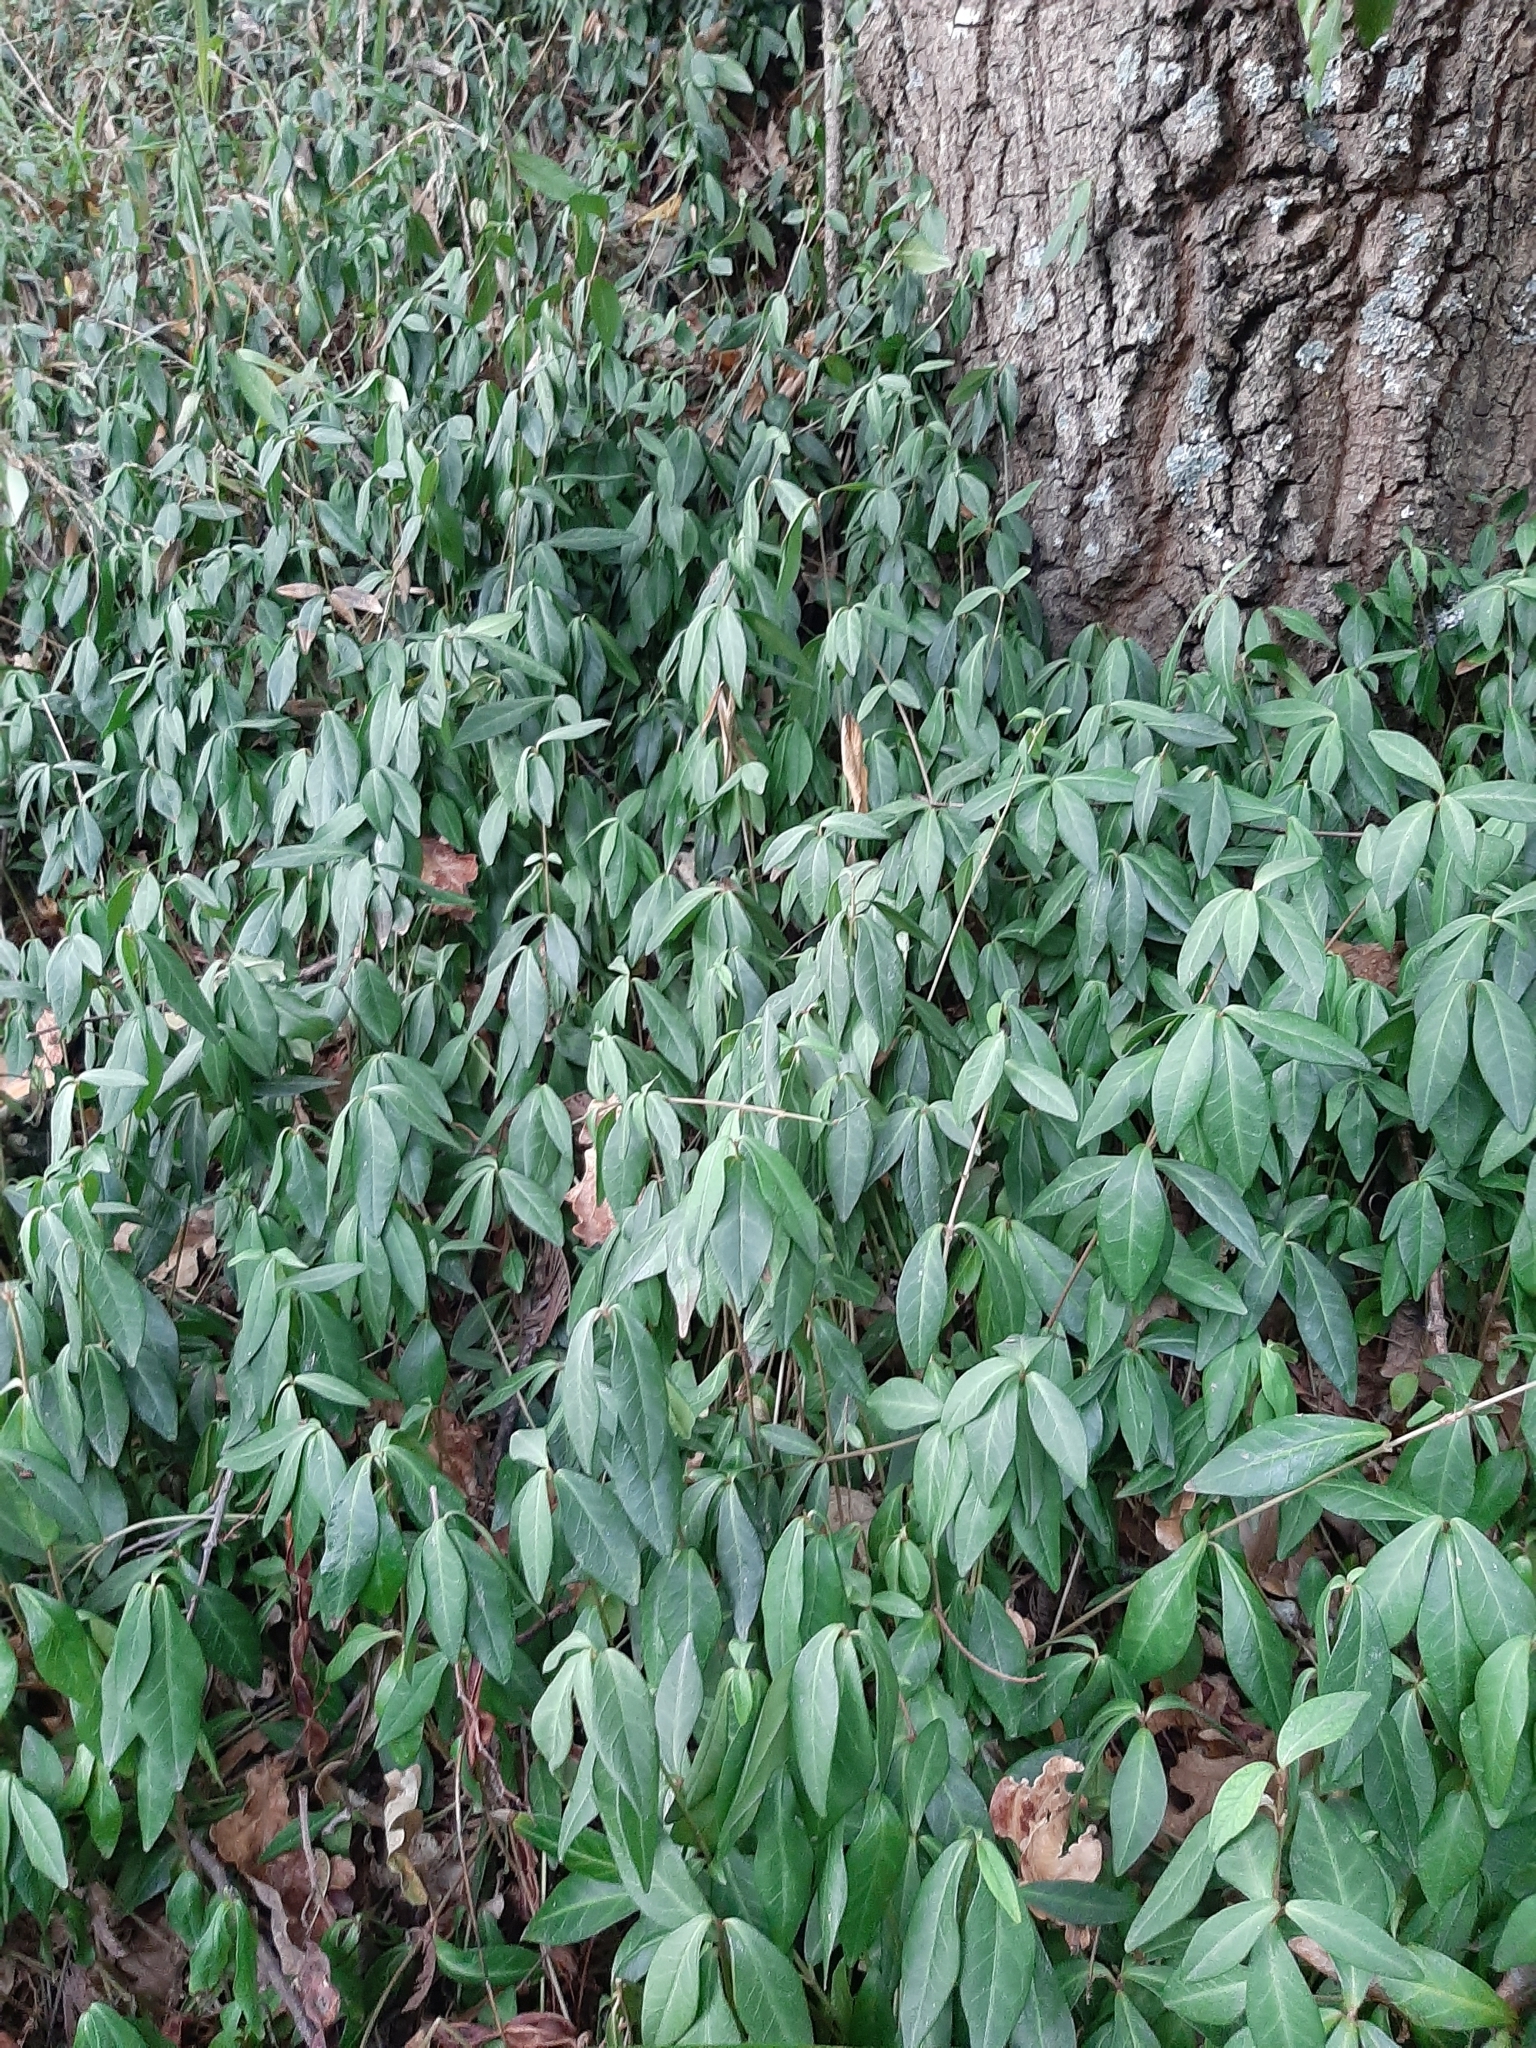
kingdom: Plantae
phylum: Tracheophyta
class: Magnoliopsida
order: Gentianales
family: Apocynaceae
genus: Vinca
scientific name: Vinca minor
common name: Lesser periwinkle
